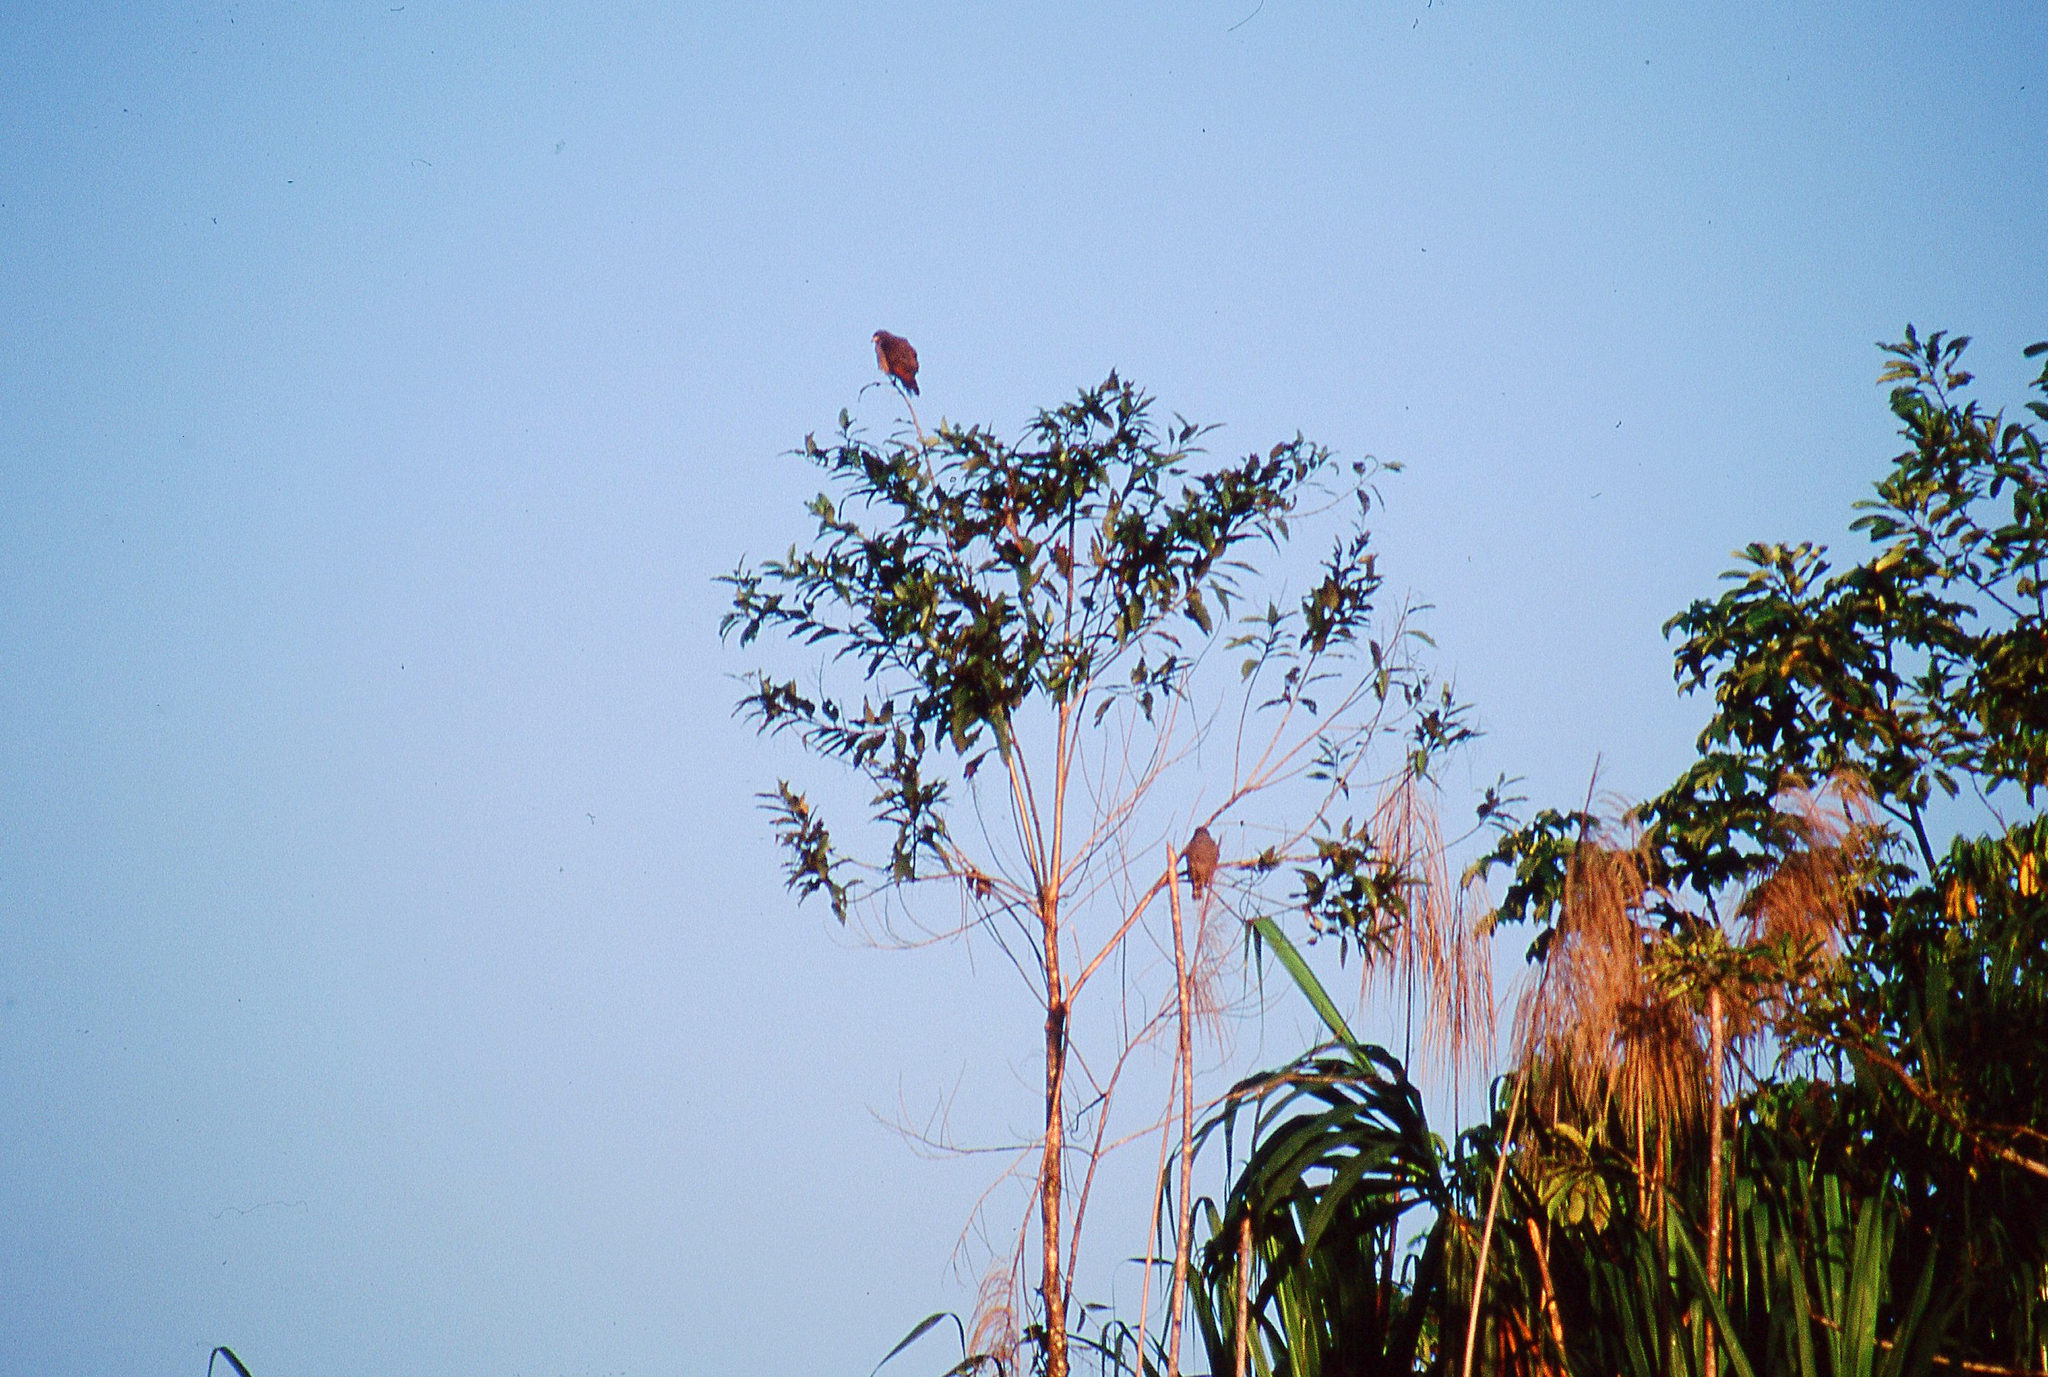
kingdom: Animalia
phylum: Chordata
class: Aves
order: Accipitriformes
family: Accipitridae
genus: Rupornis
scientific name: Rupornis magnirostris
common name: Roadside hawk
